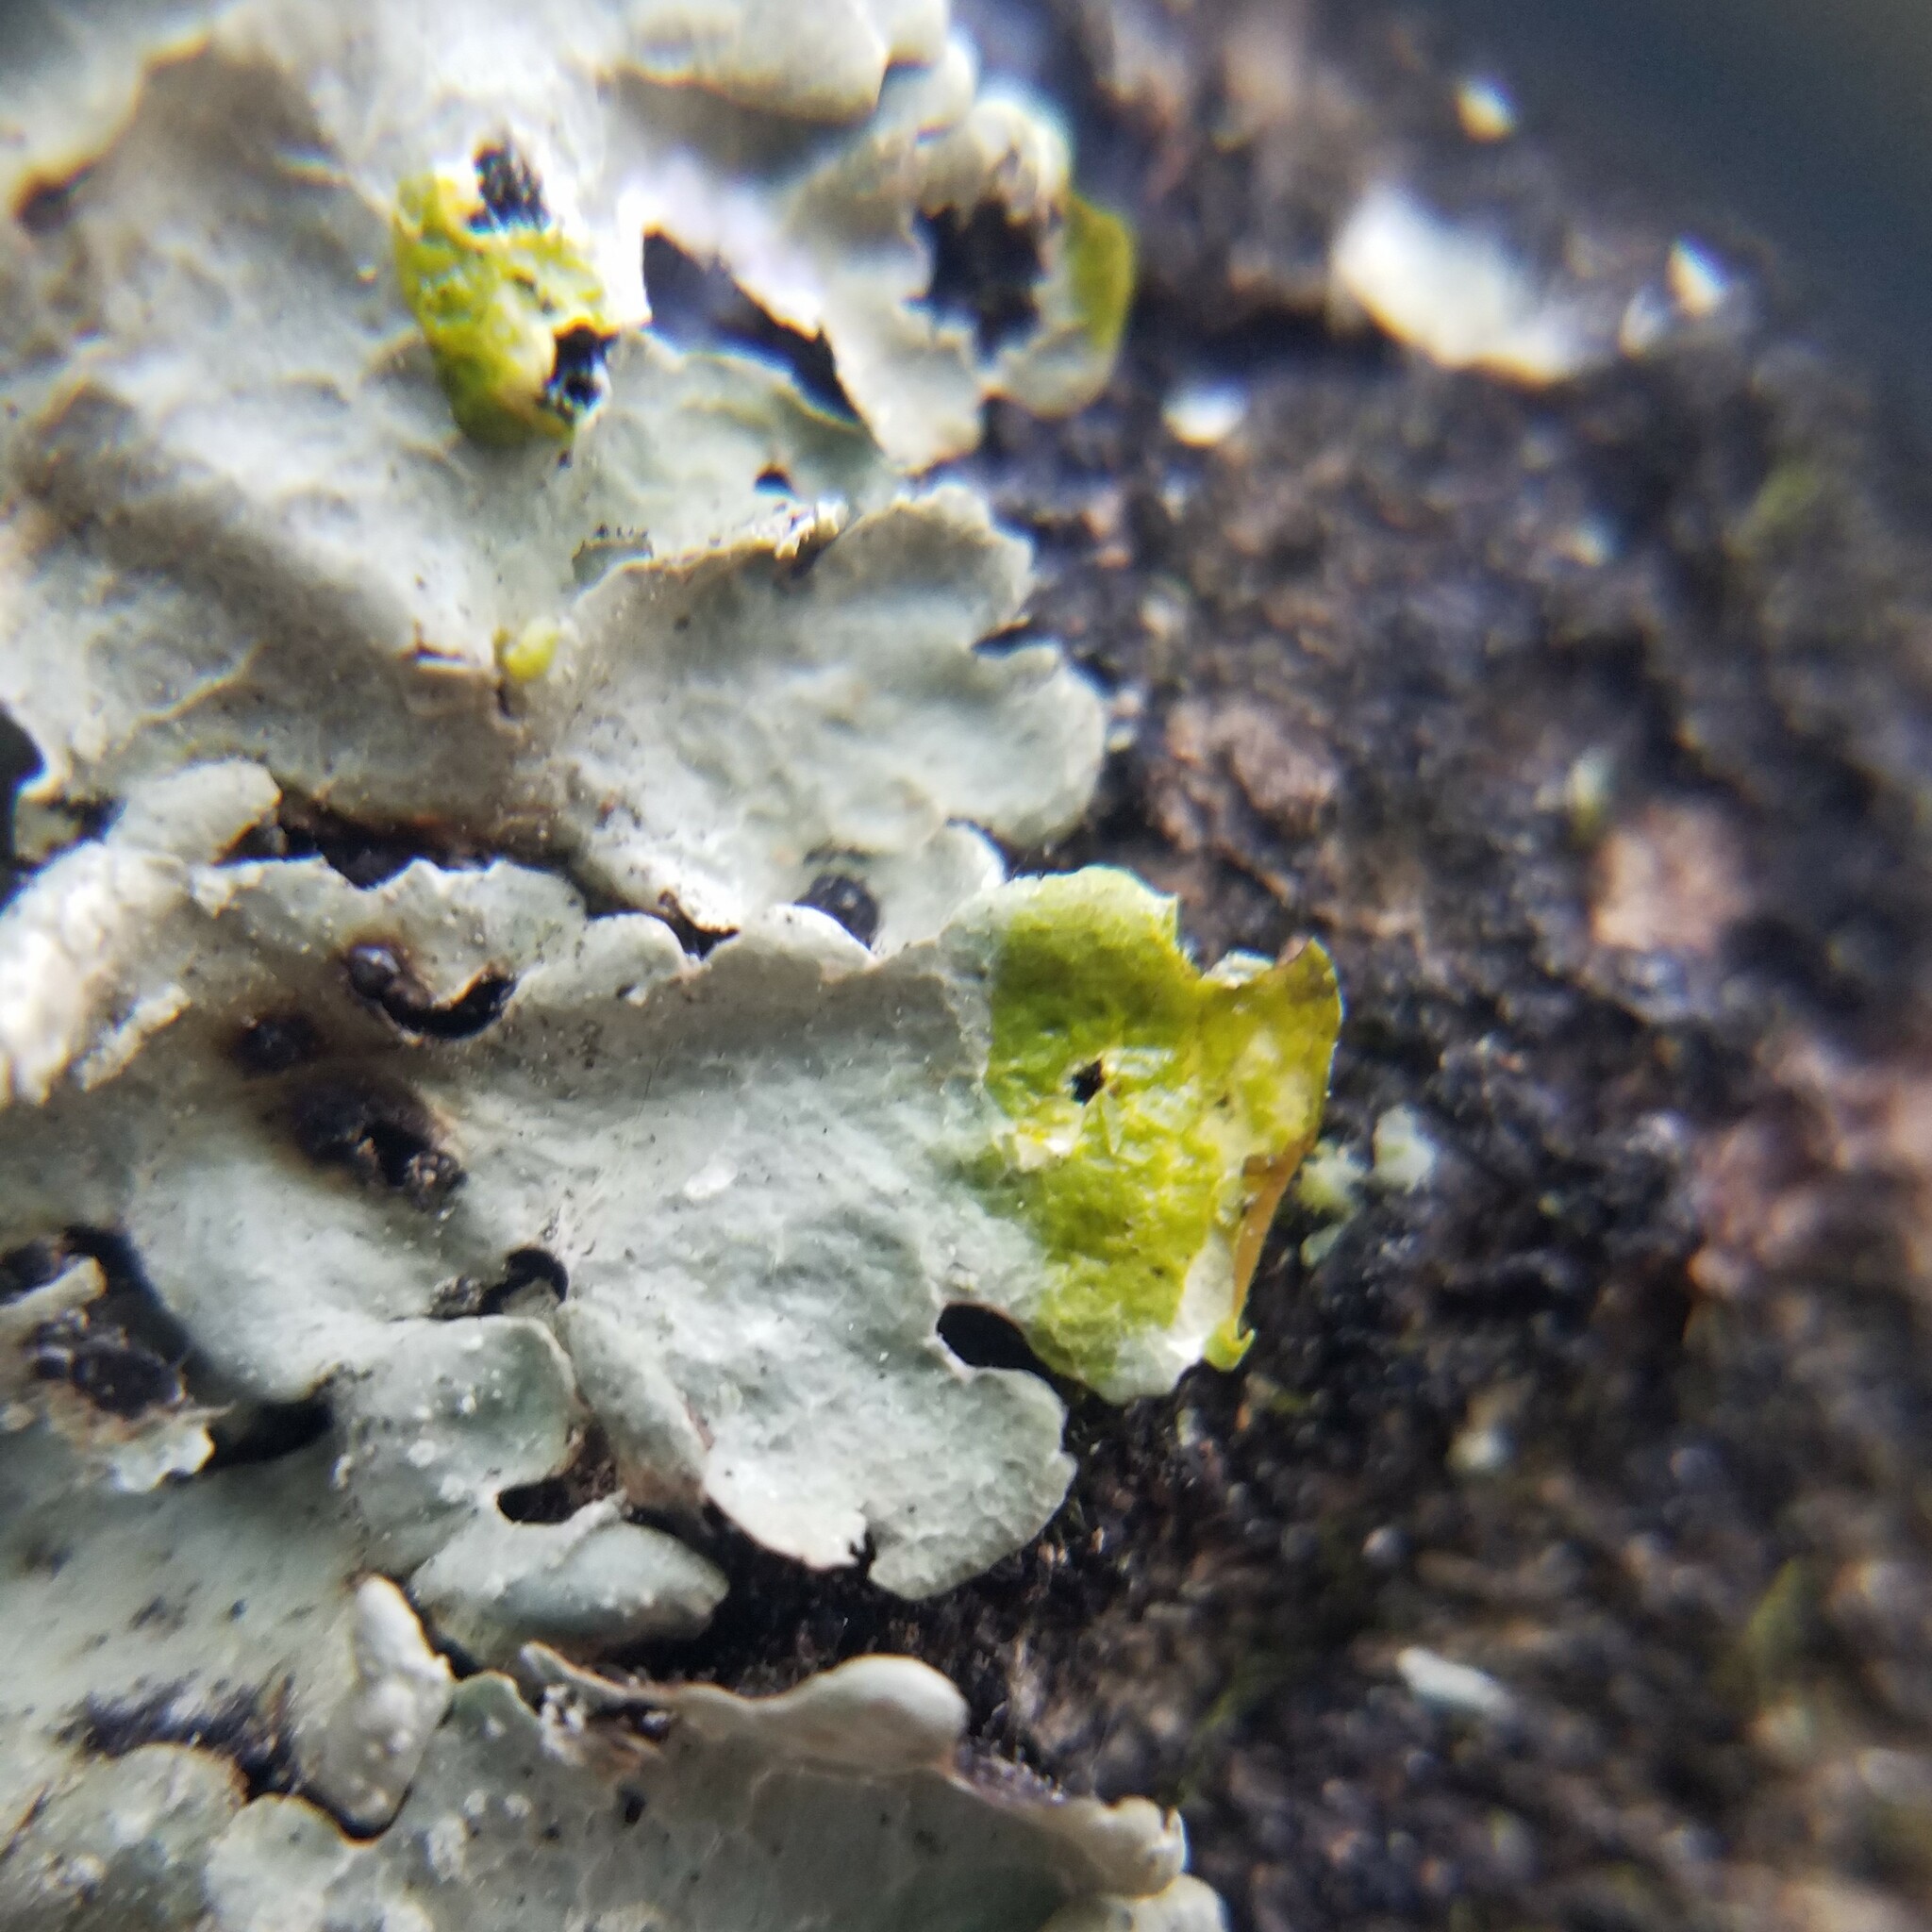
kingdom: Fungi
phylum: Ascomycota
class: Lecanoromycetes
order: Lecanorales
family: Parmeliaceae
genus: Crespoa
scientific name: Crespoa crozalsiana
